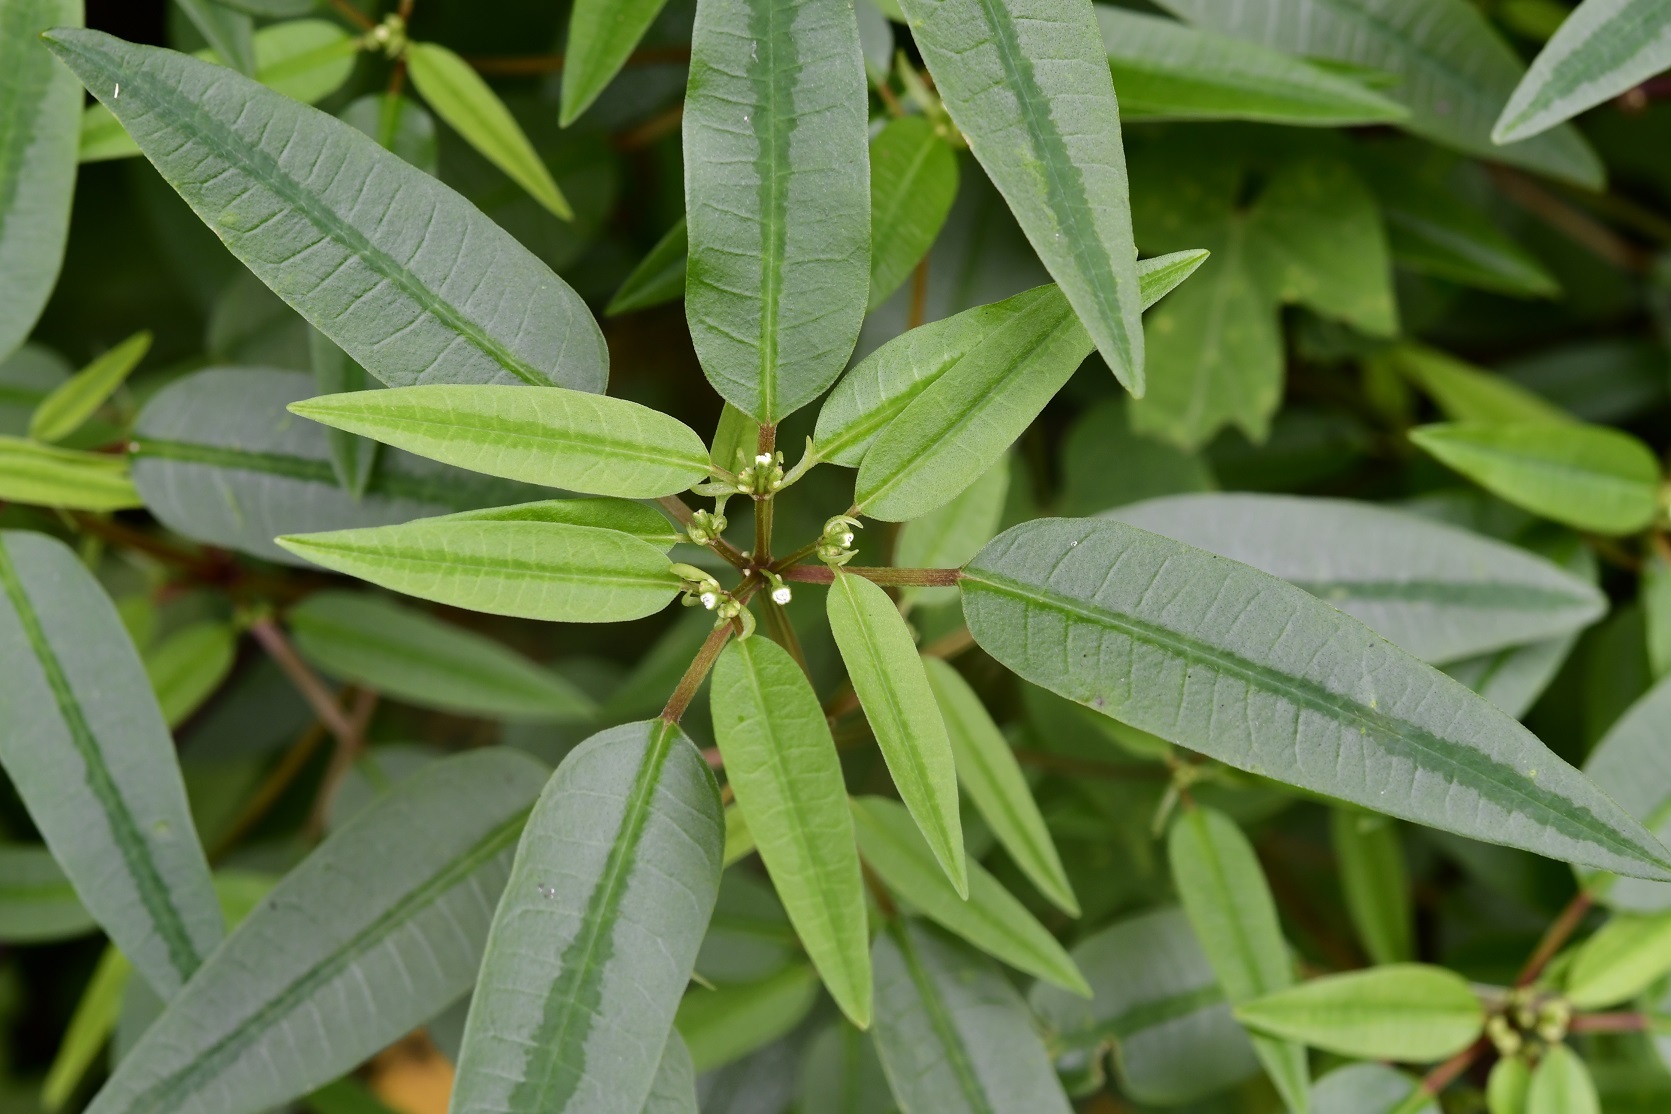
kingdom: Plantae
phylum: Tracheophyta
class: Magnoliopsida
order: Malpighiales
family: Euphorbiaceae
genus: Euphorbia
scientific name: Euphorbia ariensis
